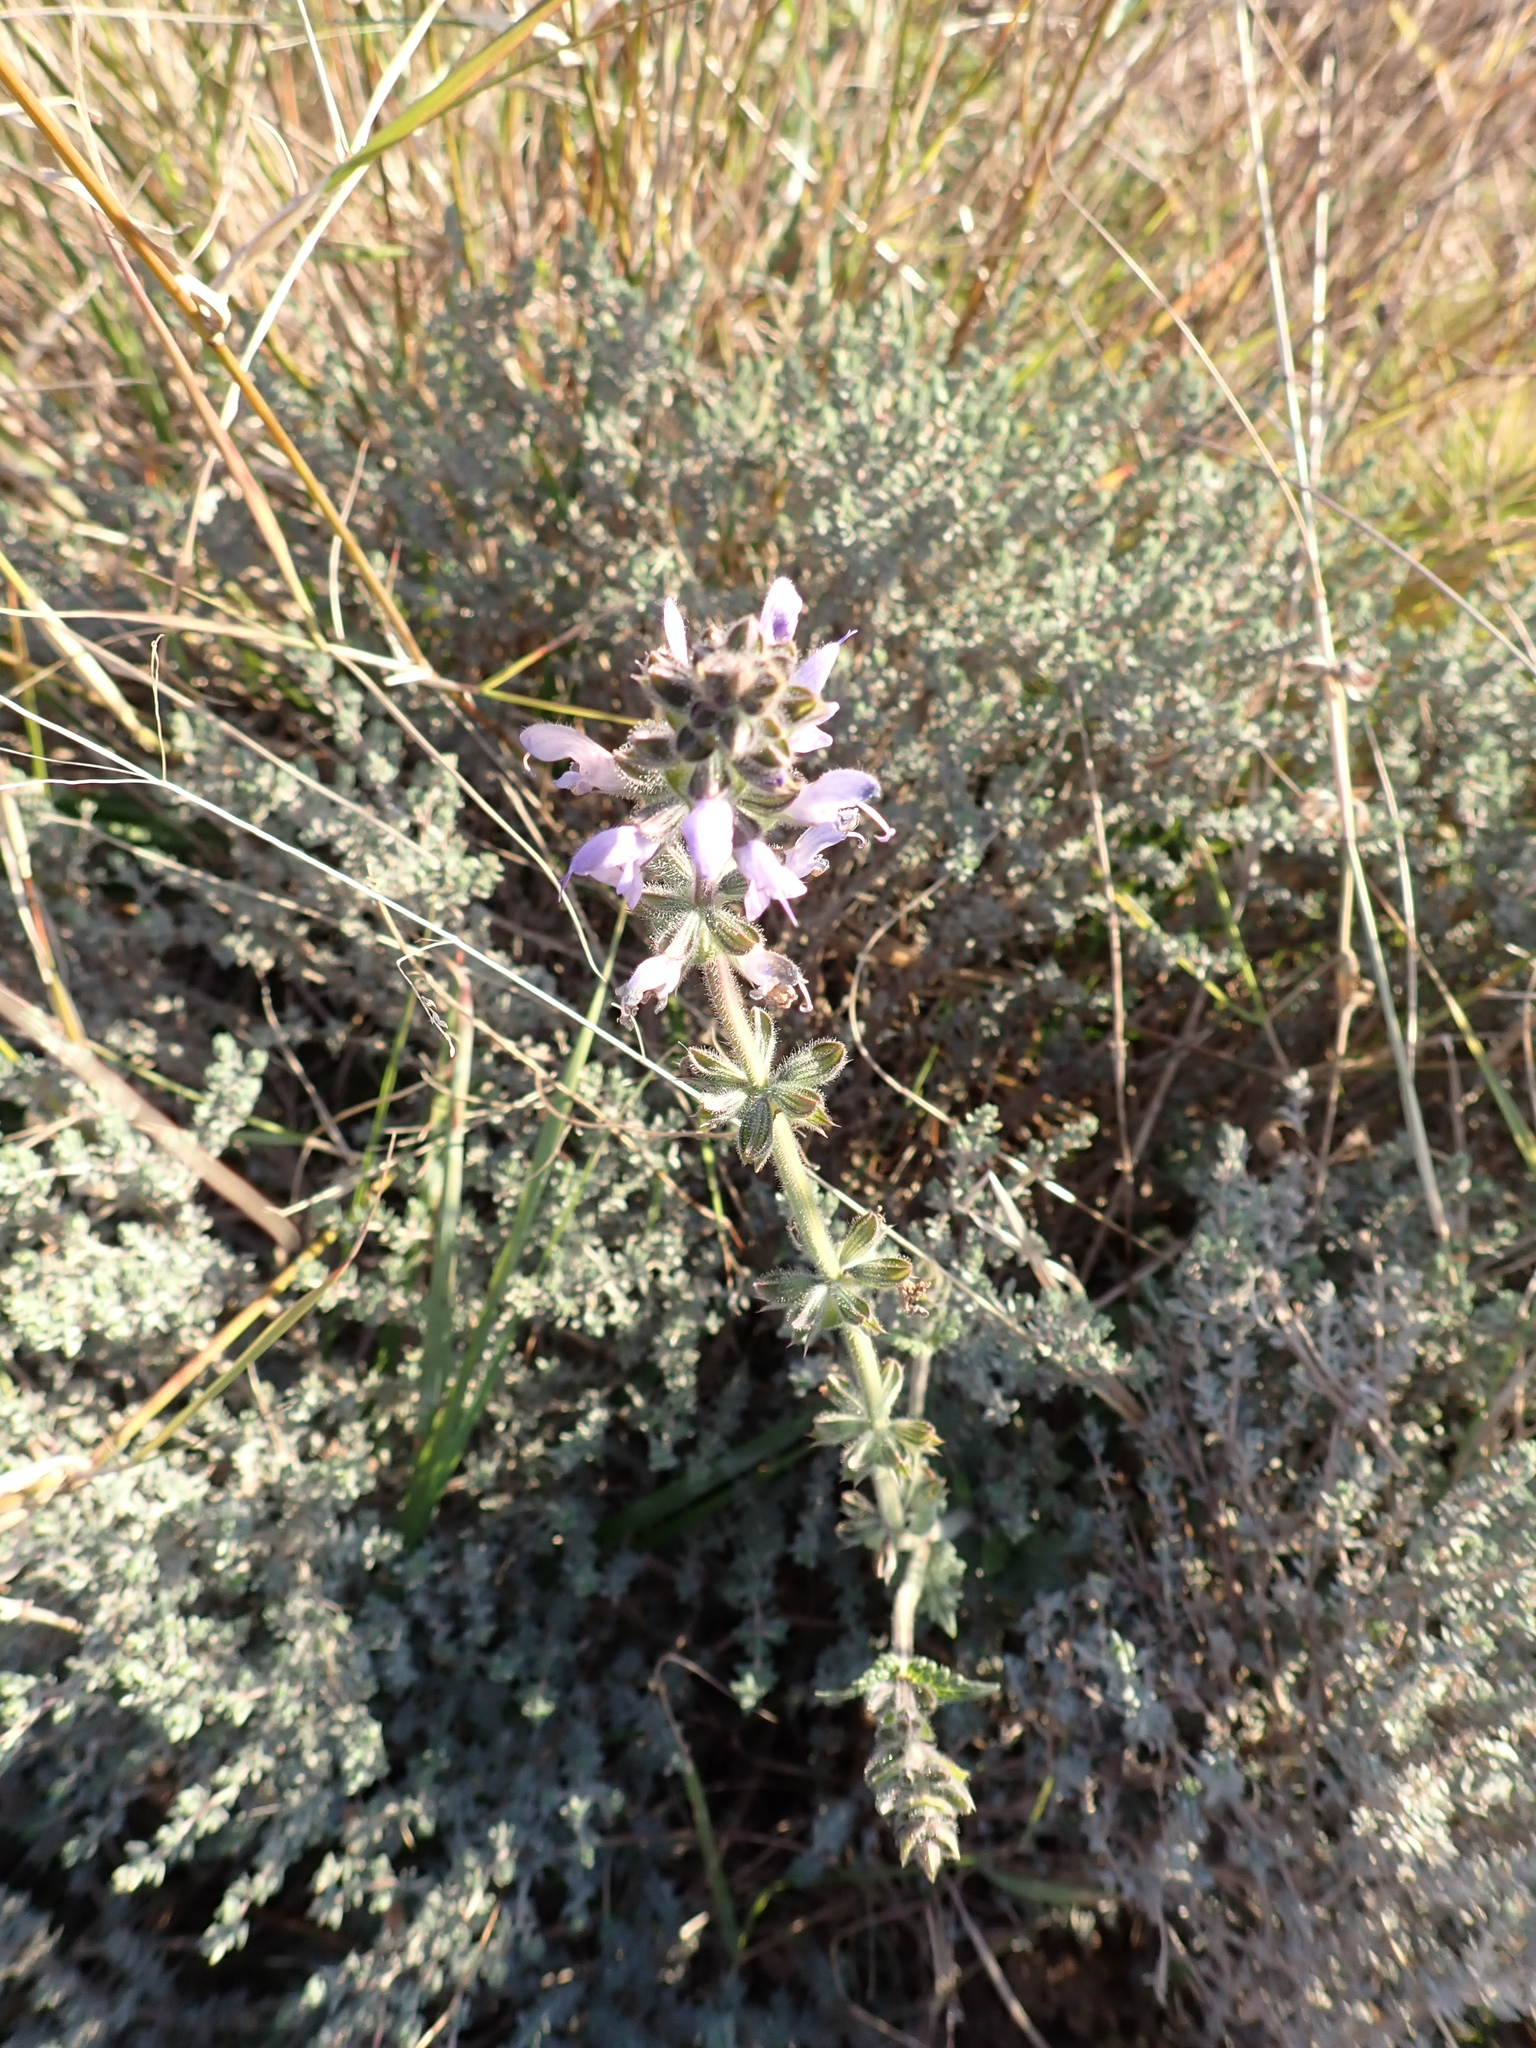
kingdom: Plantae
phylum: Tracheophyta
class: Magnoliopsida
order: Lamiales
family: Lamiaceae
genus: Salvia
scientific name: Salvia verbenaca
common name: Wild clary
